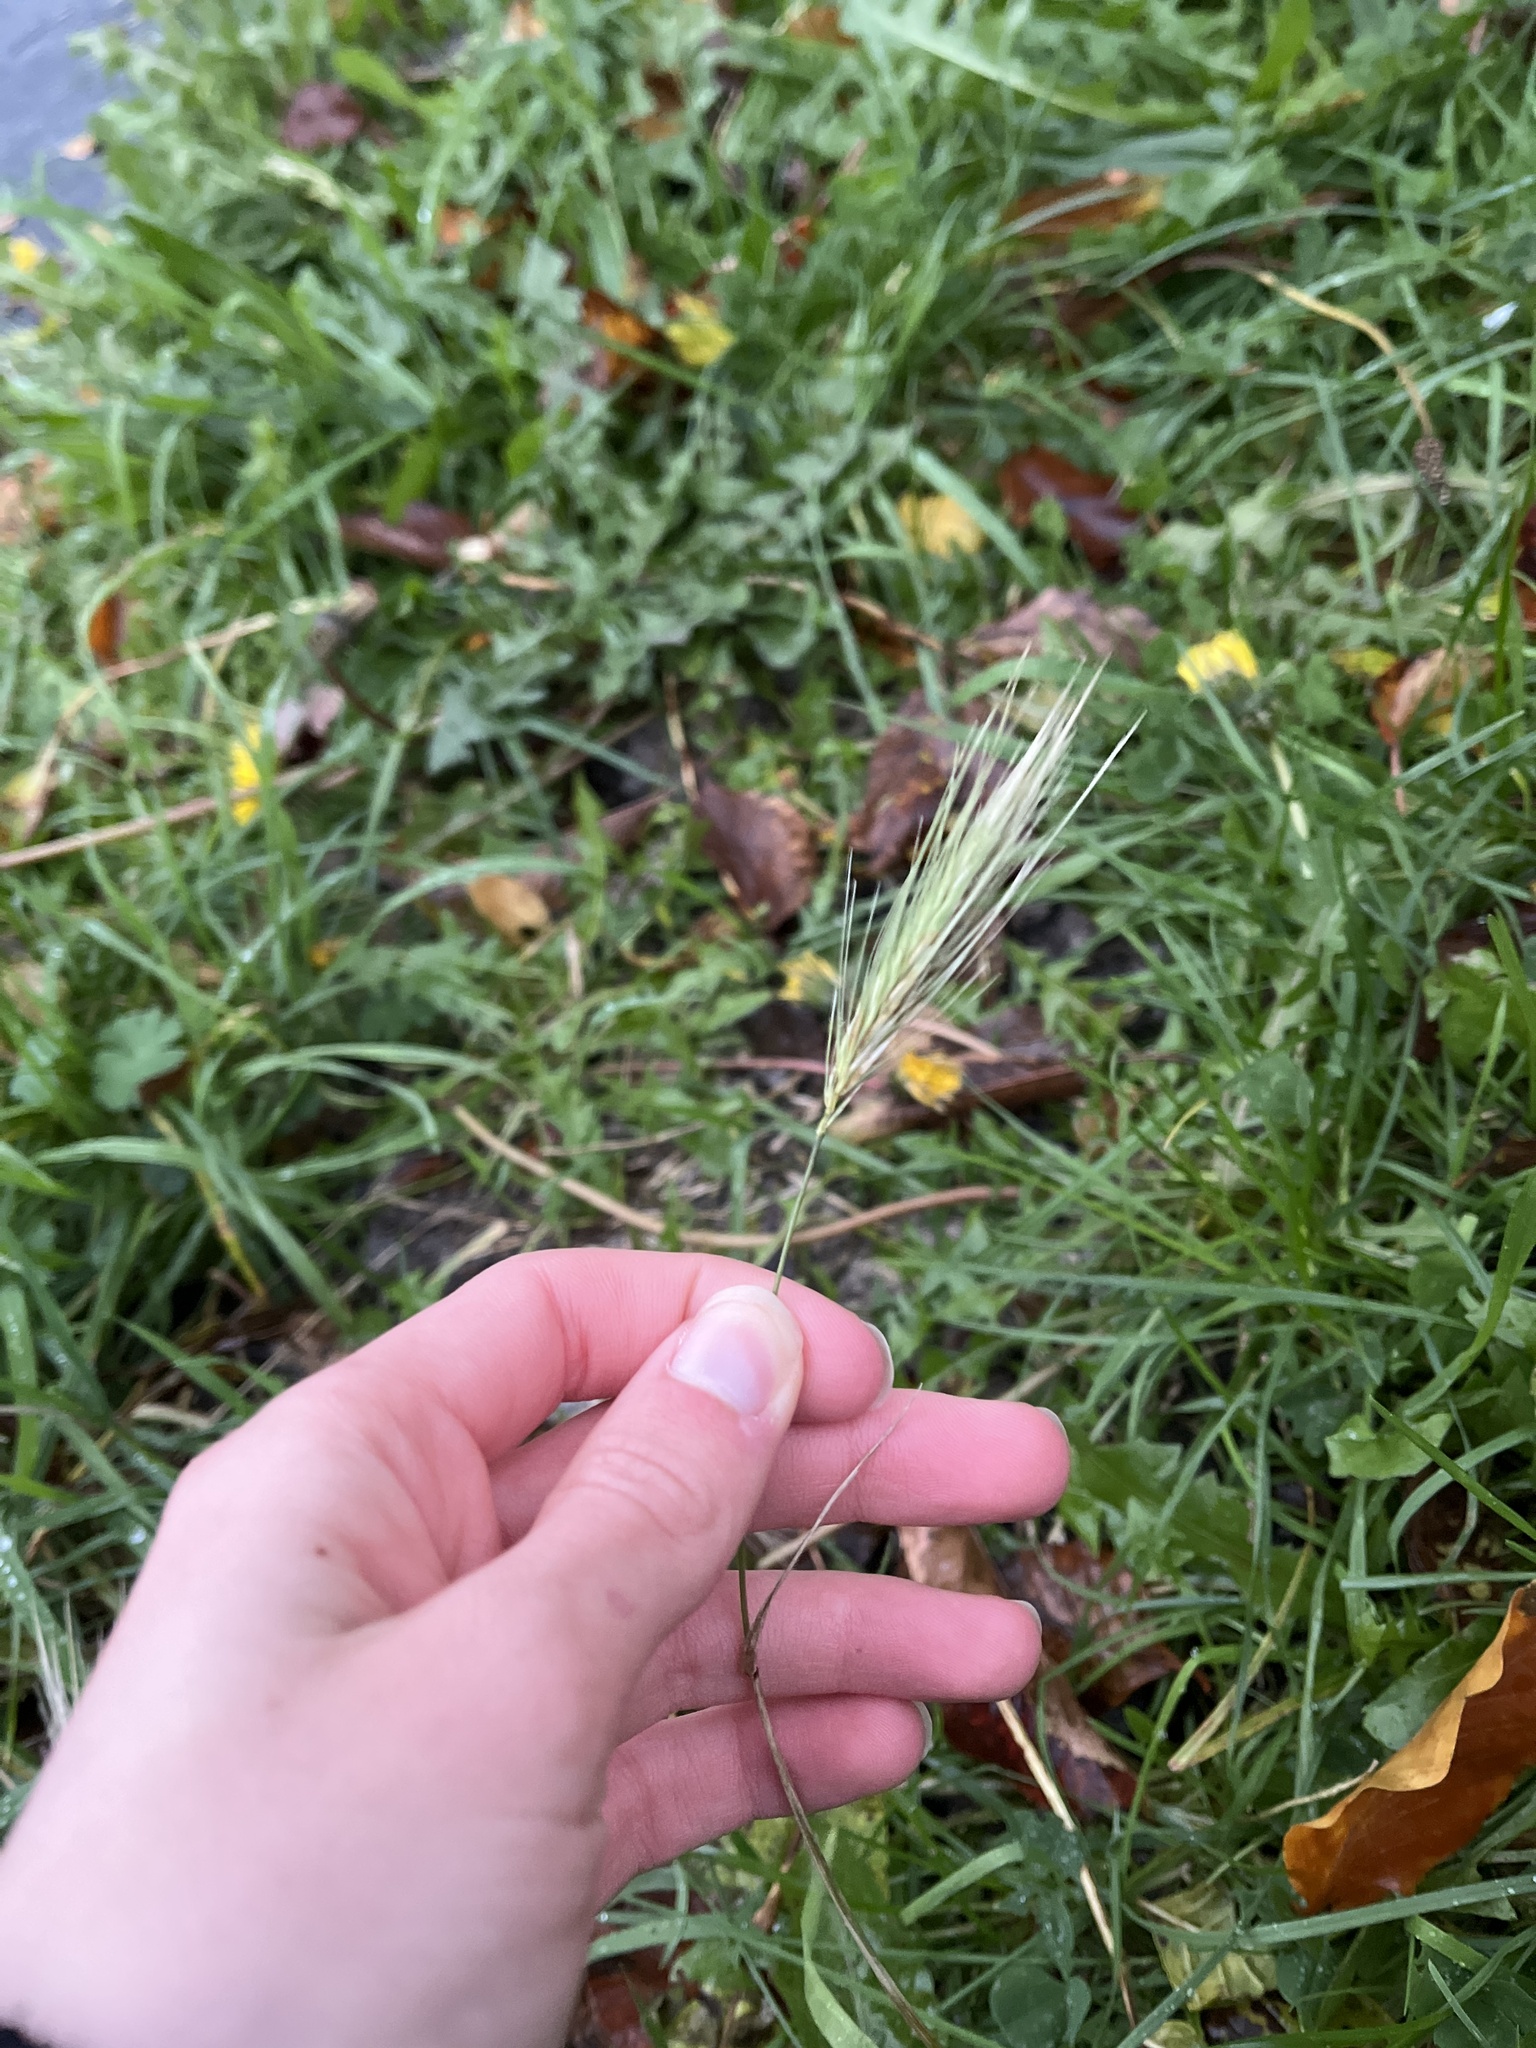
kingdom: Plantae
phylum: Tracheophyta
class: Liliopsida
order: Poales
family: Poaceae
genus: Hordeum
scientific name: Hordeum murinum
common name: Wall barley
